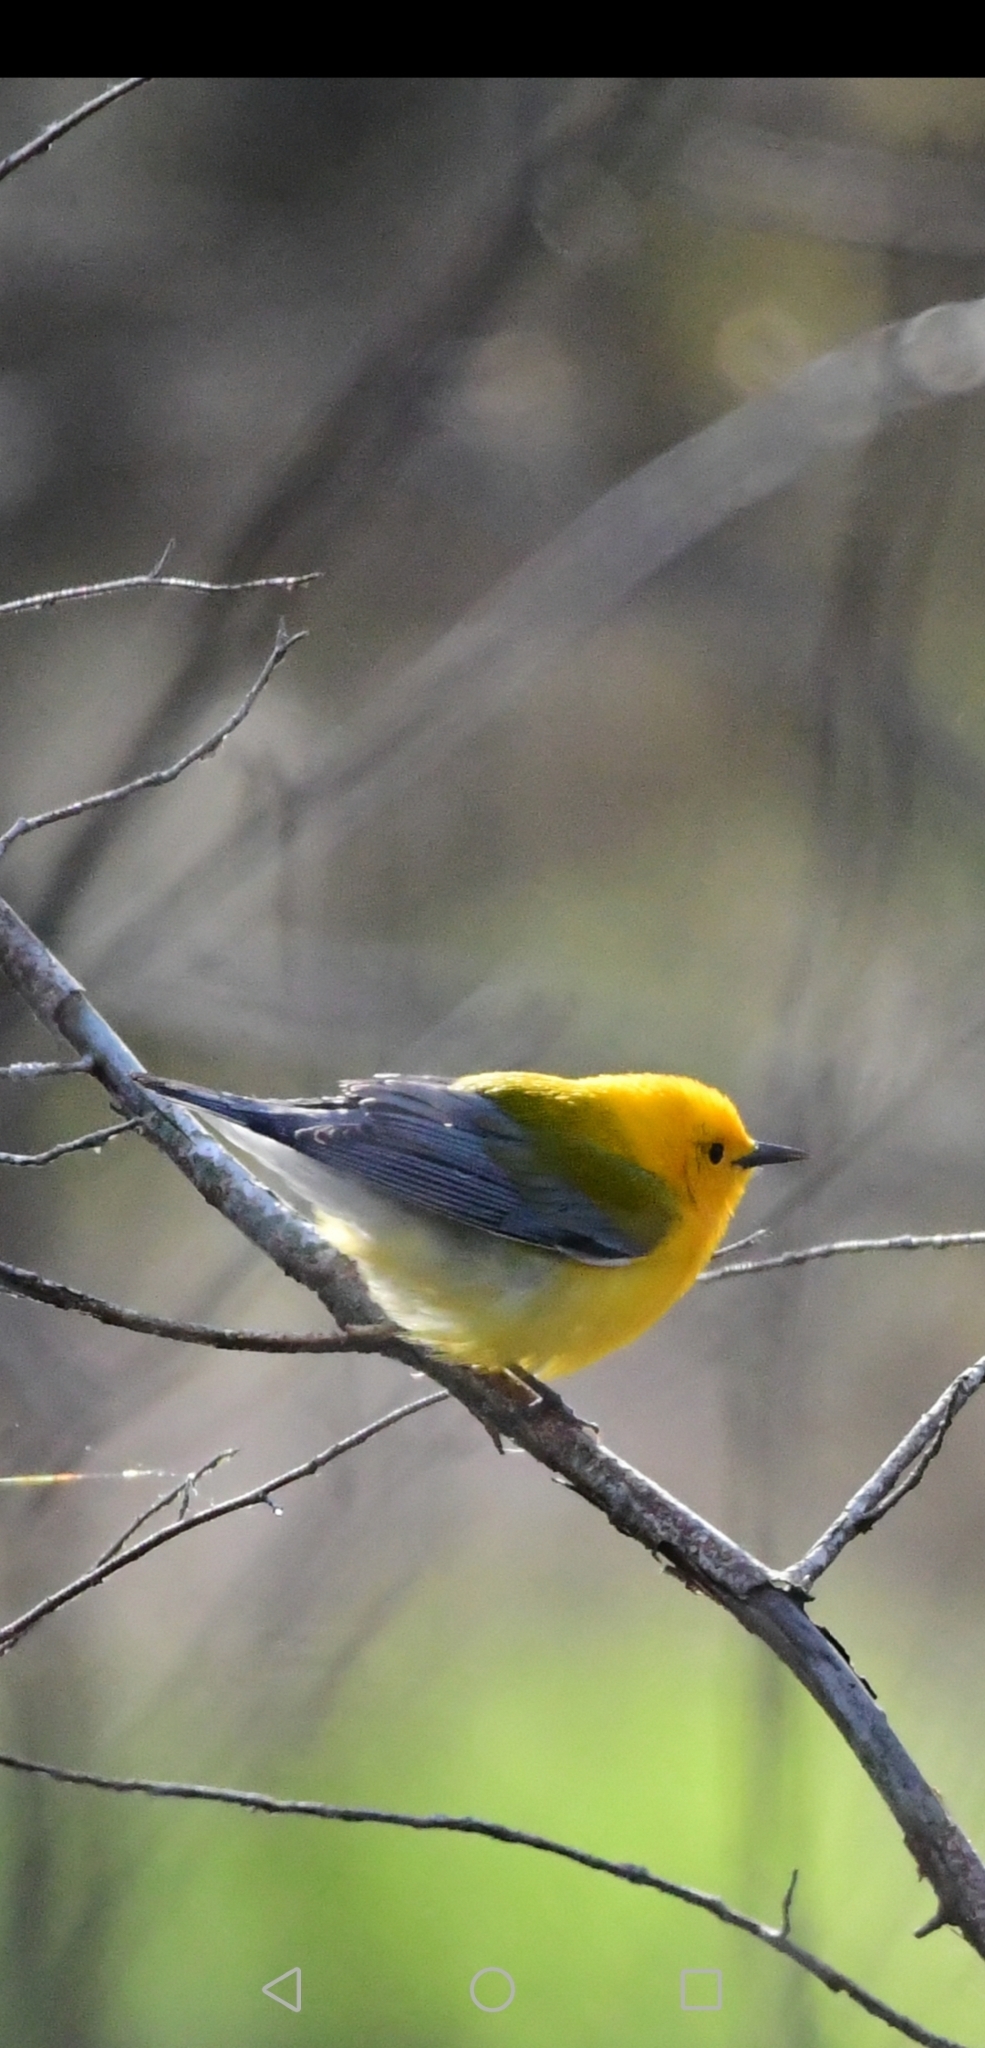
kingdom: Animalia
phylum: Chordata
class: Aves
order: Passeriformes
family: Parulidae
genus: Protonotaria
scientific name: Protonotaria citrea
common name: Prothonotary warbler
